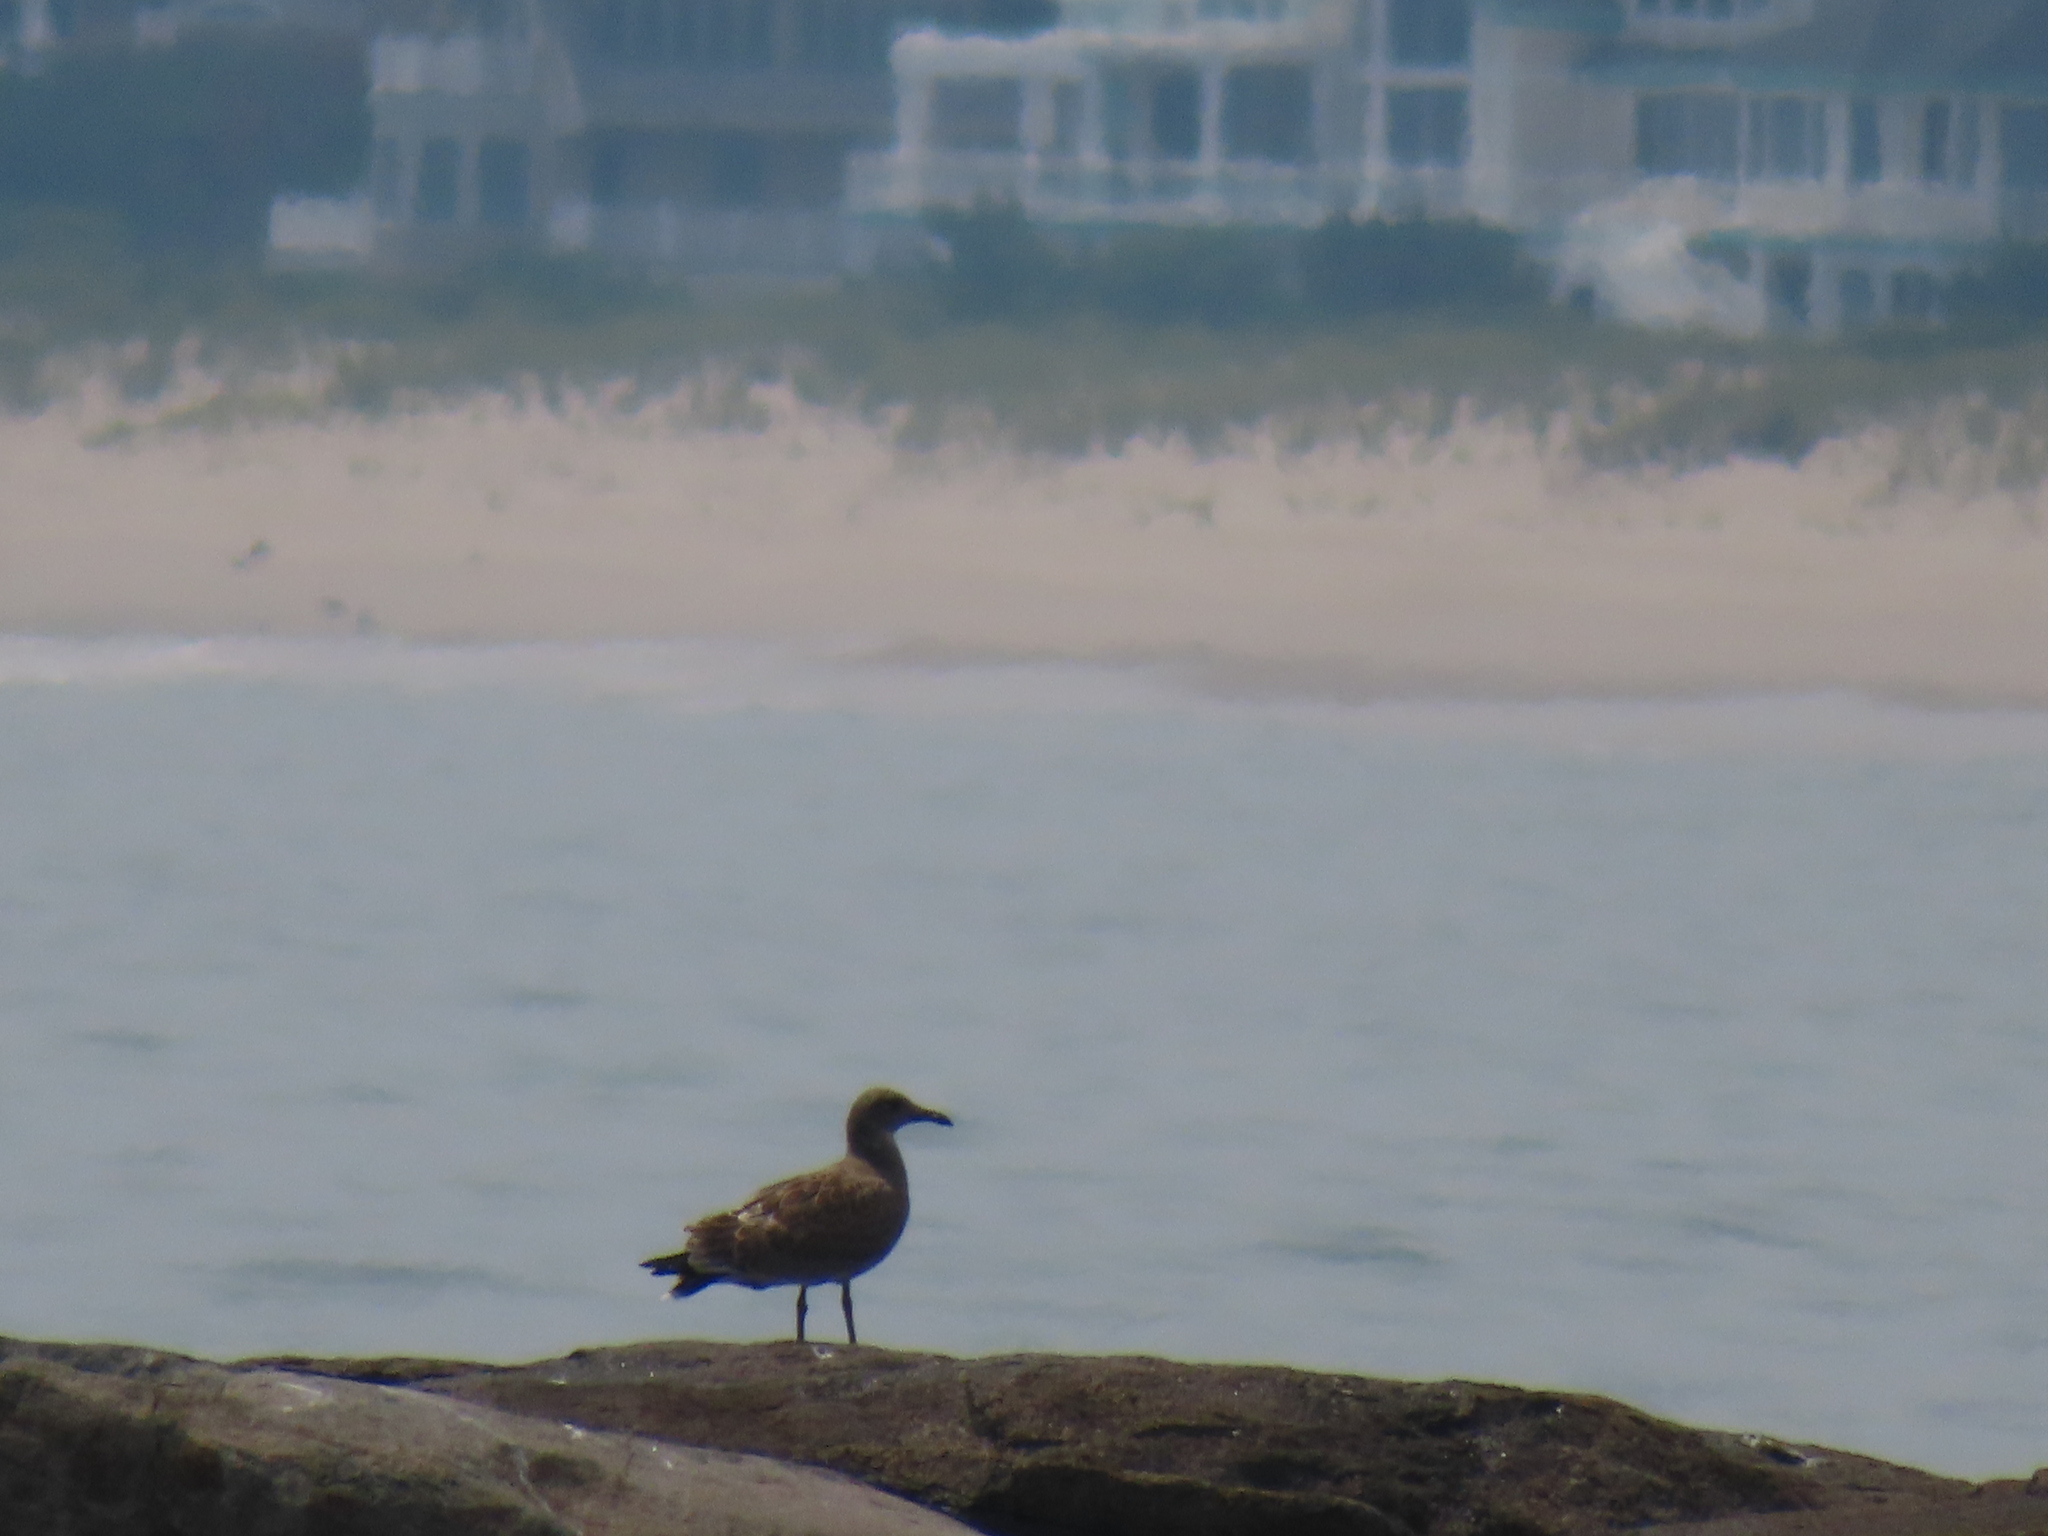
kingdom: Animalia
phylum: Chordata
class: Aves
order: Charadriiformes
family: Laridae
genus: Larus
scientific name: Larus marinus
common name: Great black-backed gull
